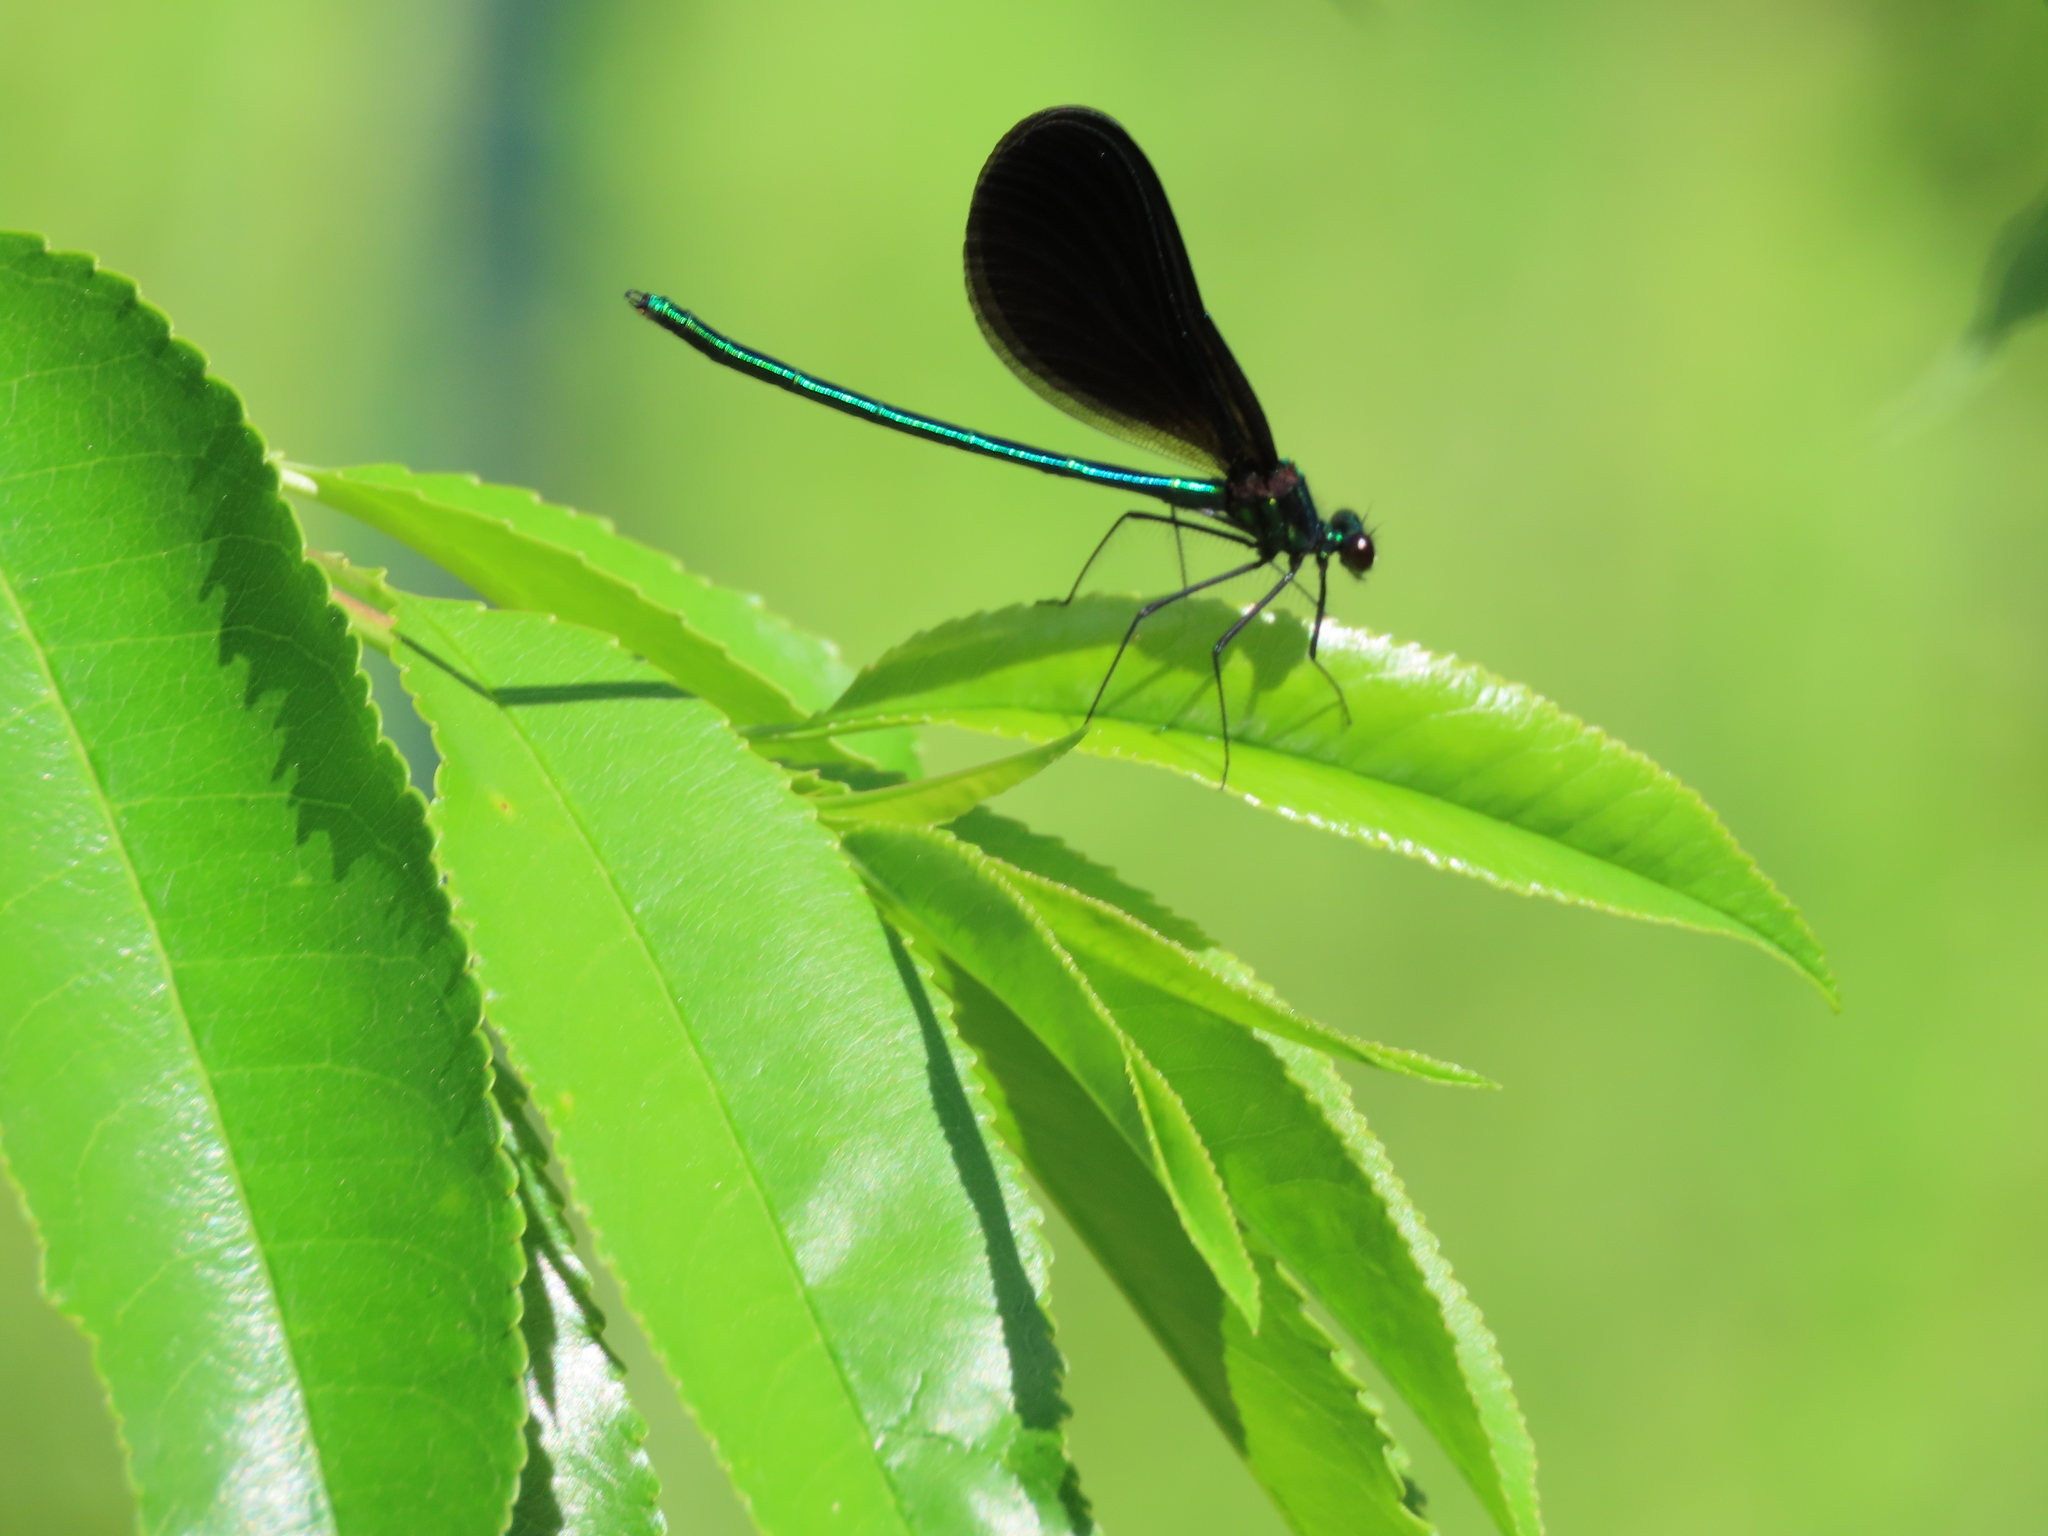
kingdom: Animalia
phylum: Arthropoda
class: Insecta
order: Odonata
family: Calopterygidae
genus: Calopteryx
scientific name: Calopteryx maculata
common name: Ebony jewelwing
